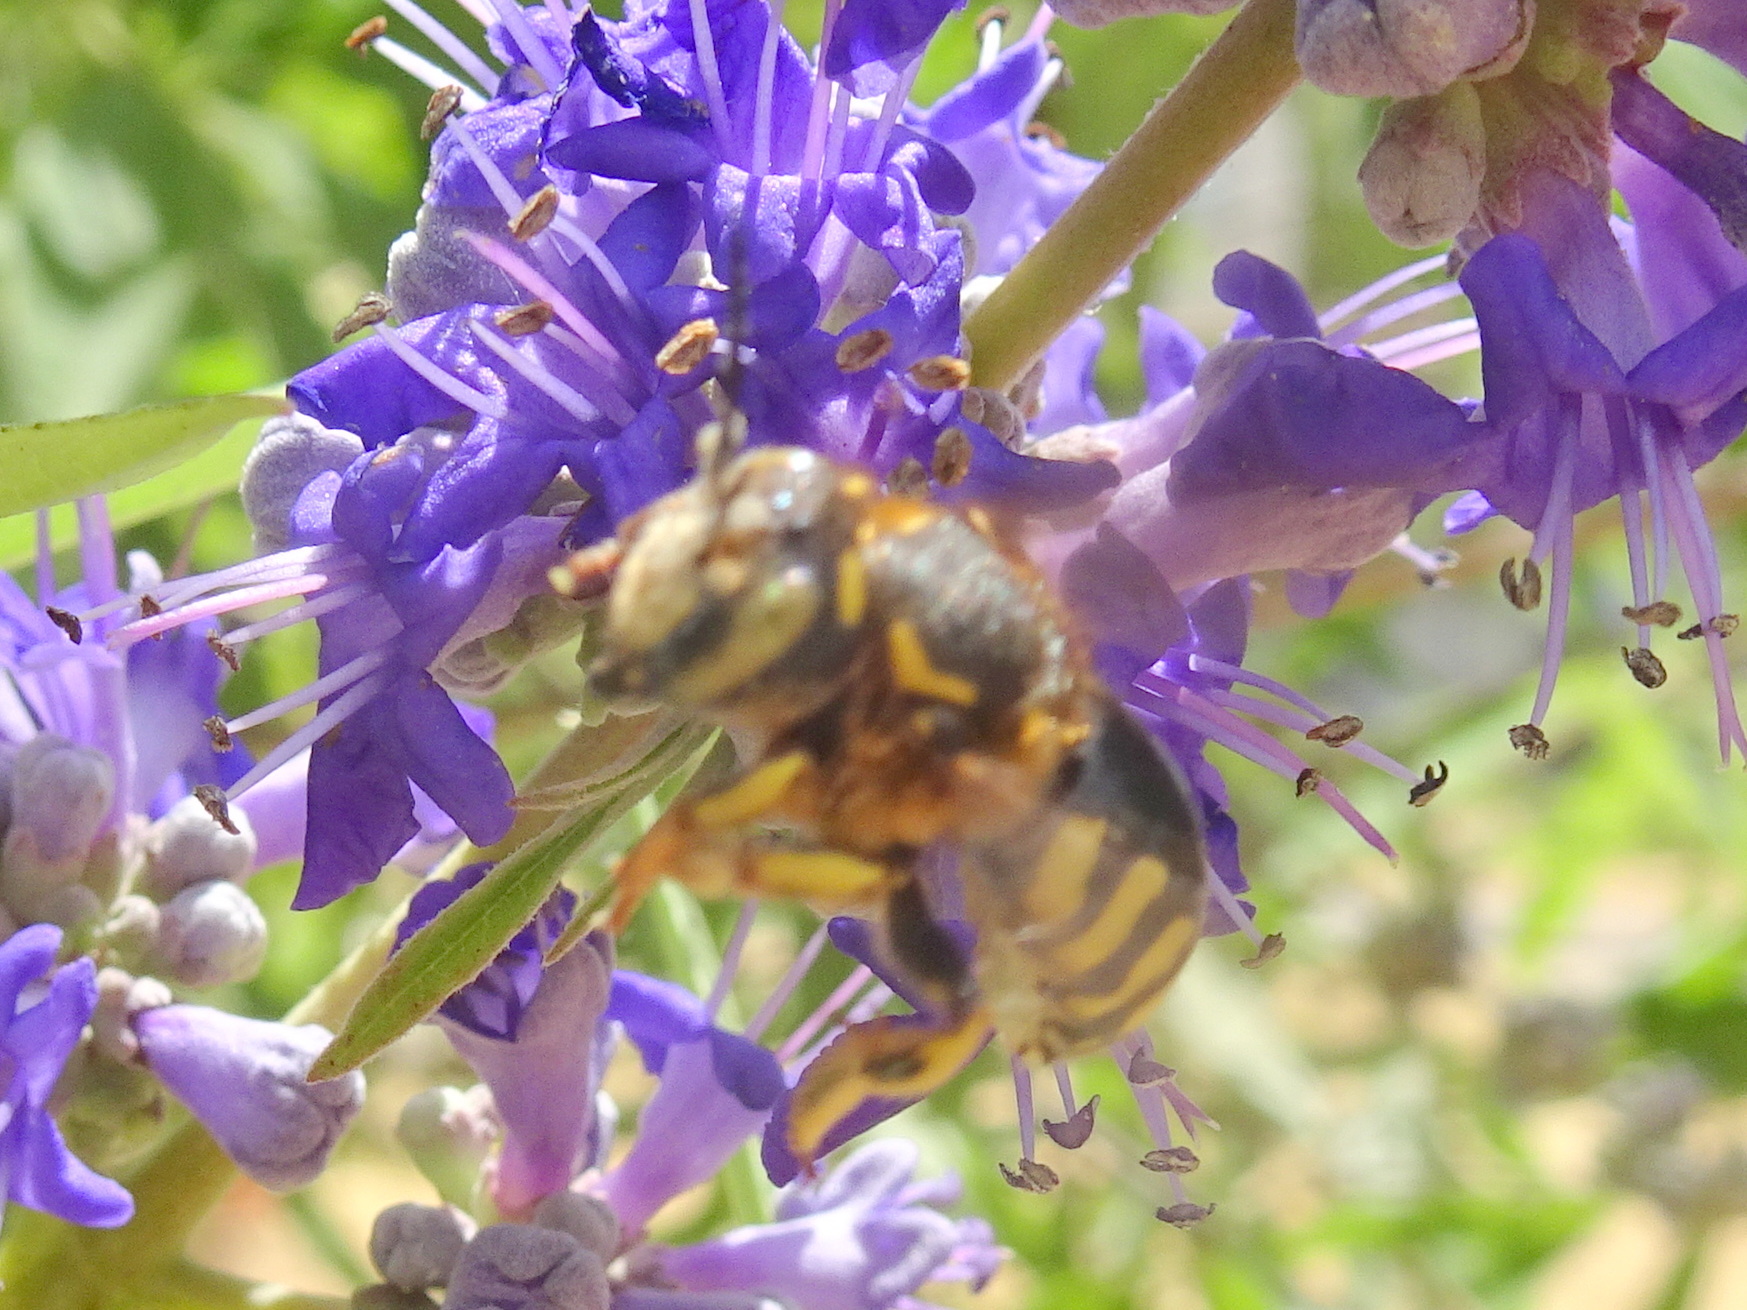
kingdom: Animalia
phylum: Arthropoda
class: Insecta
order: Hymenoptera
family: Megachilidae
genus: Anthidium
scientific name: Anthidium florentinum
